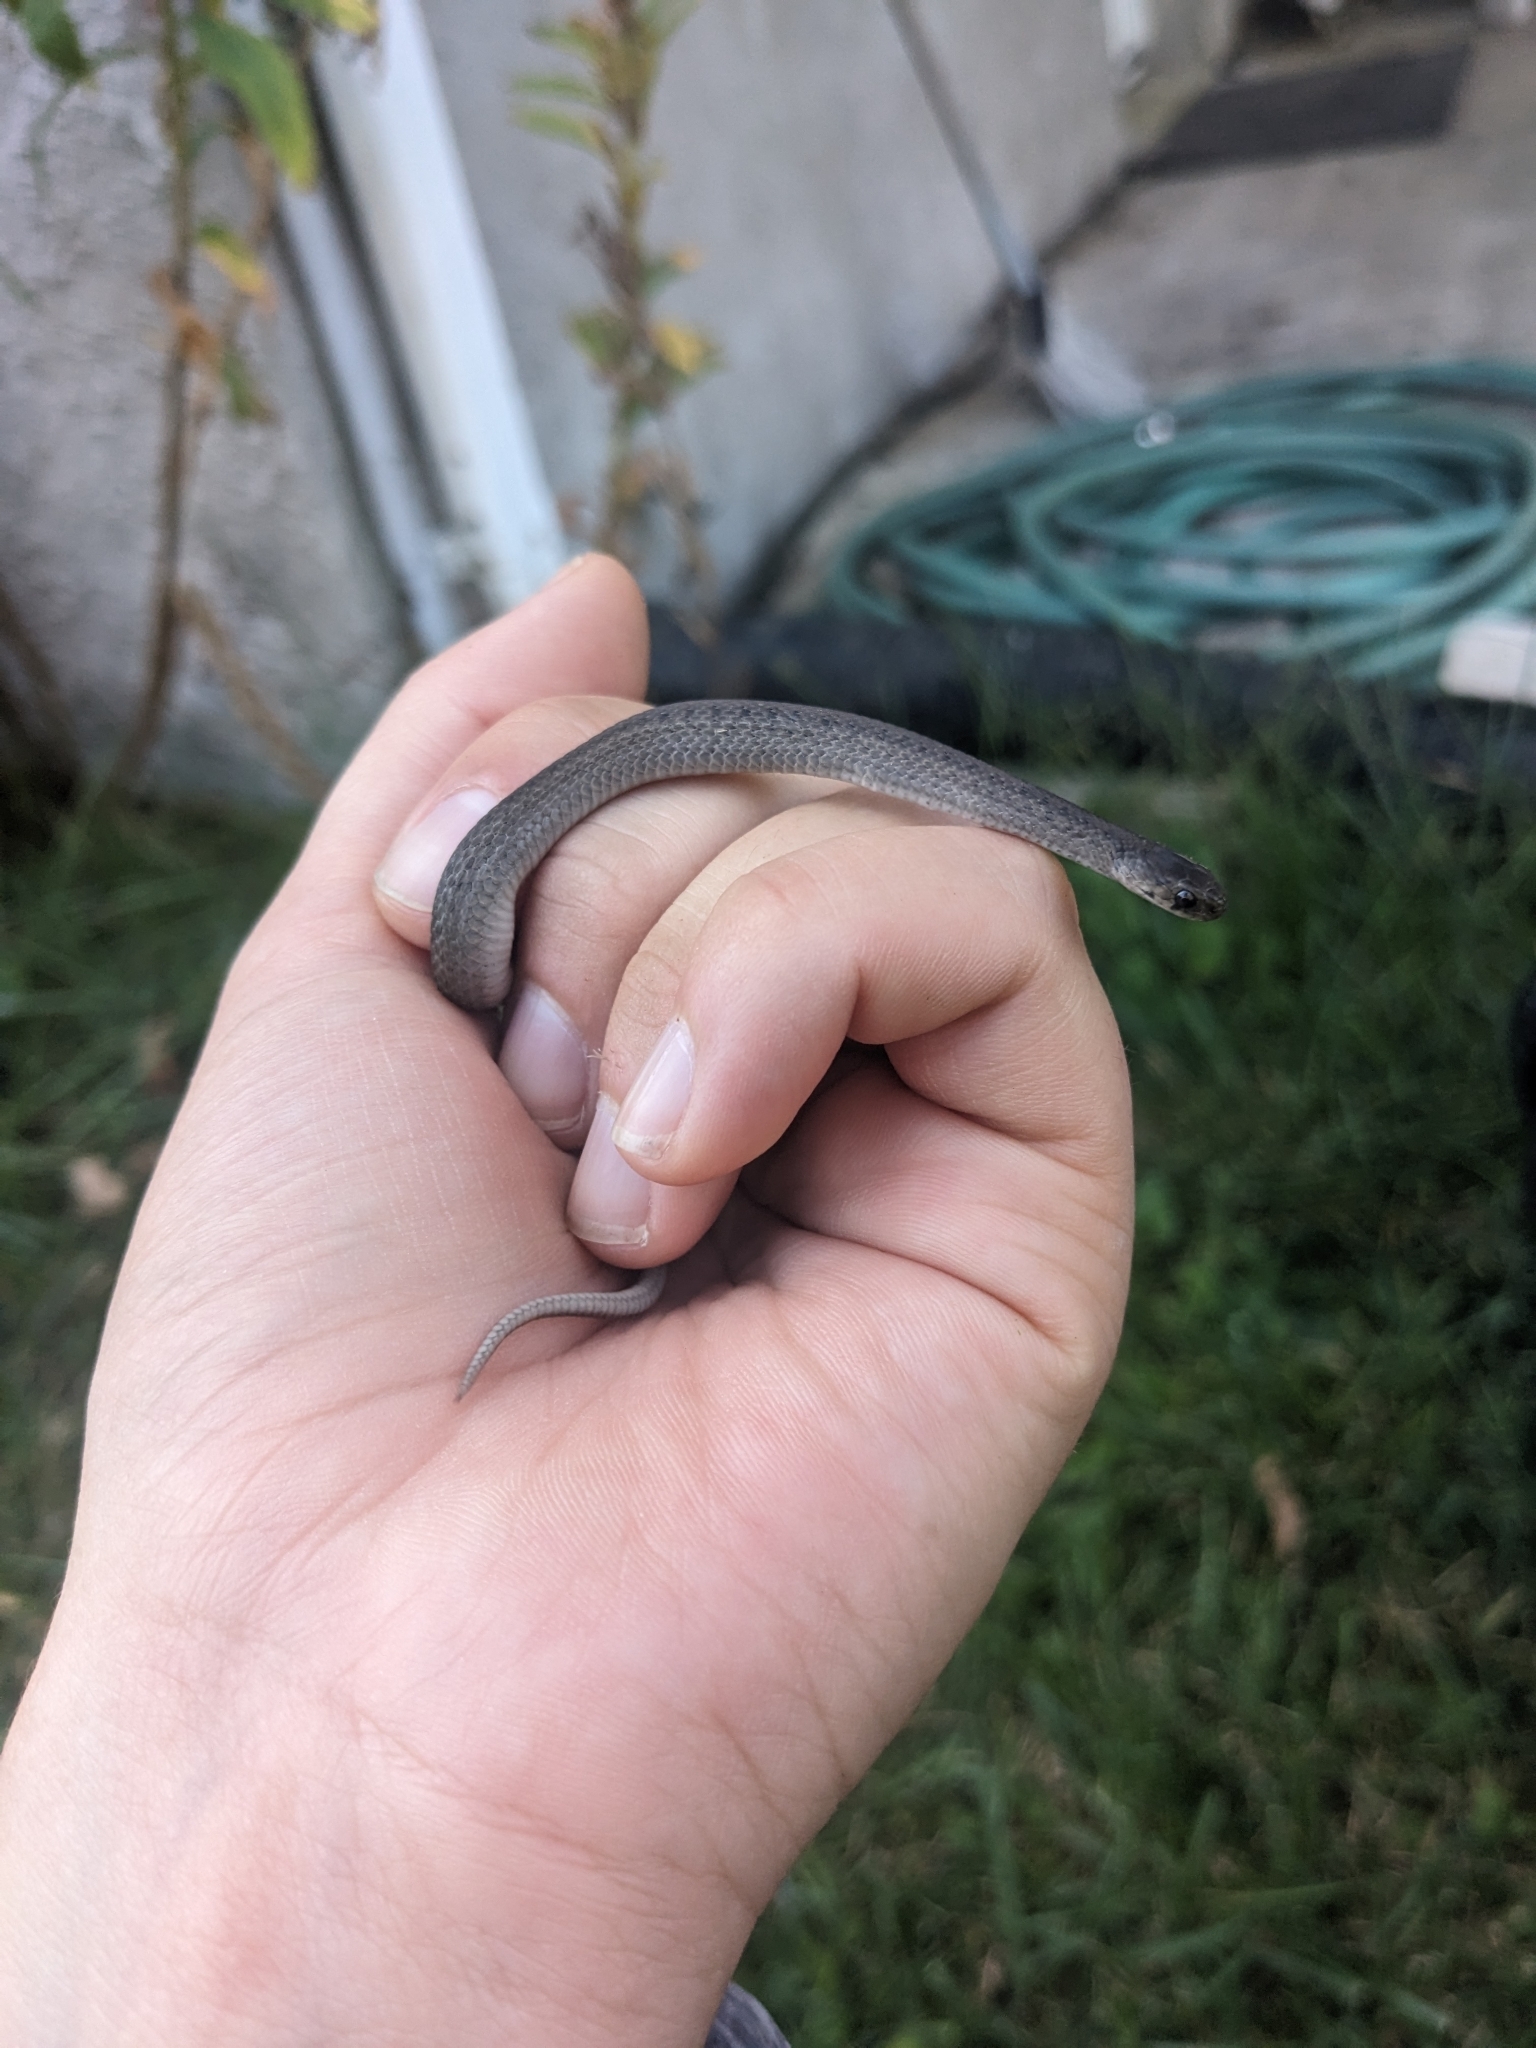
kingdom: Animalia
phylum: Chordata
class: Squamata
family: Colubridae
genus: Storeria
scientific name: Storeria dekayi
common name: (dekay’s) brown snake
